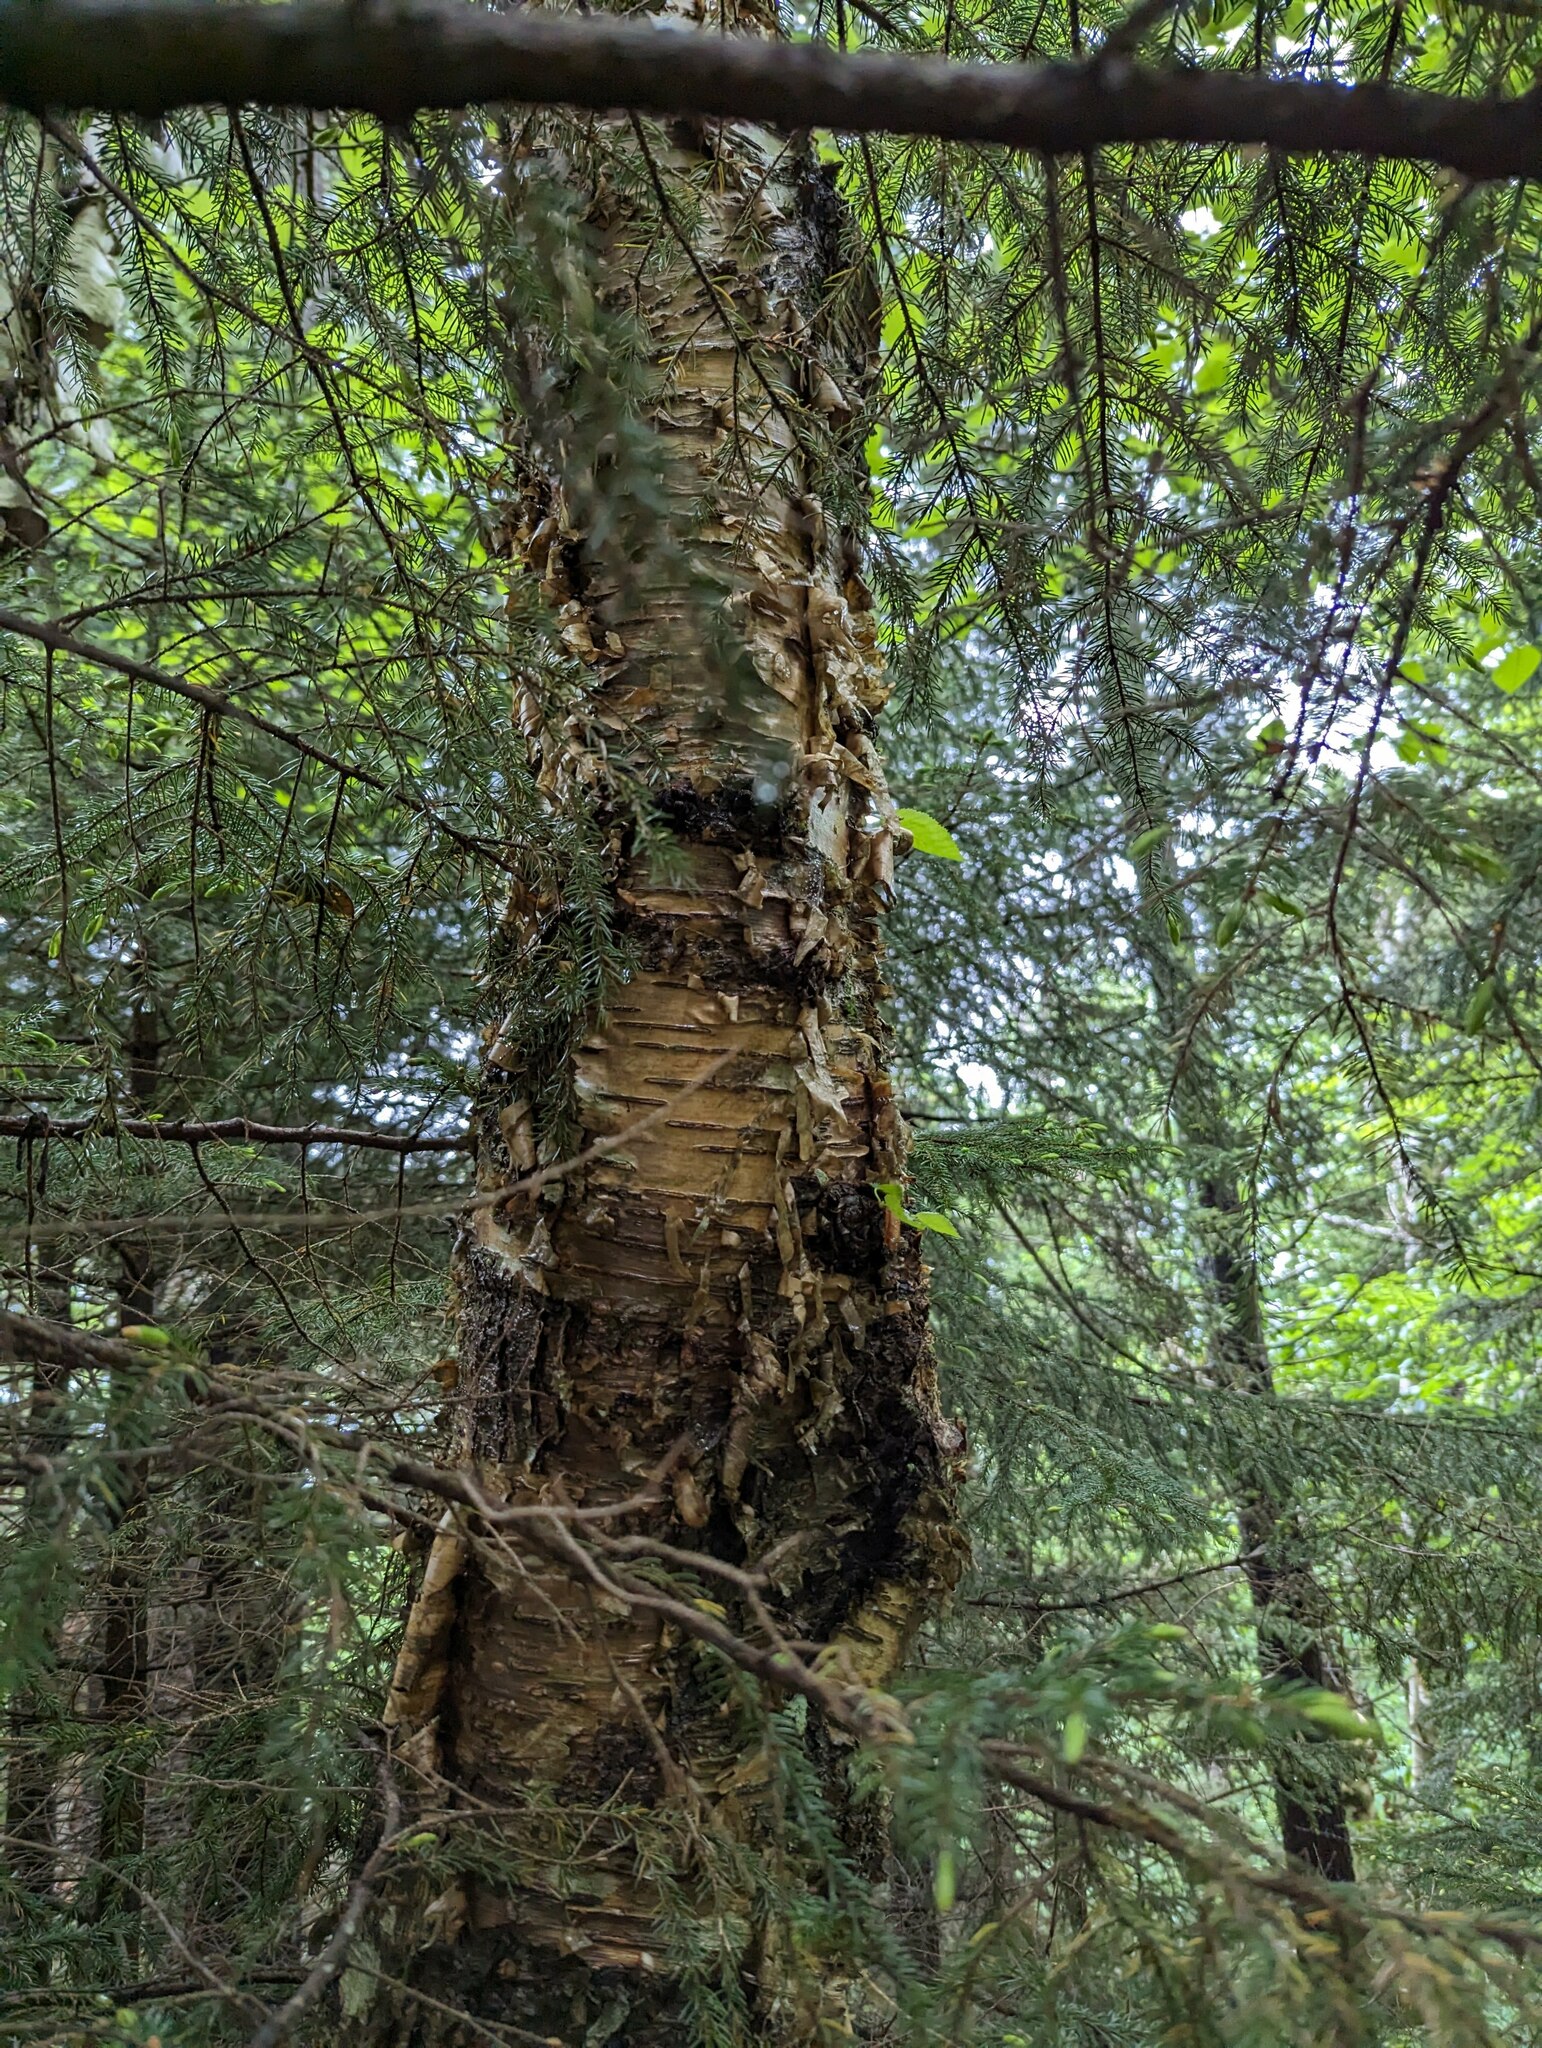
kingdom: Plantae
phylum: Tracheophyta
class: Magnoliopsida
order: Fagales
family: Betulaceae
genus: Betula
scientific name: Betula alleghaniensis
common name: Yellow birch
